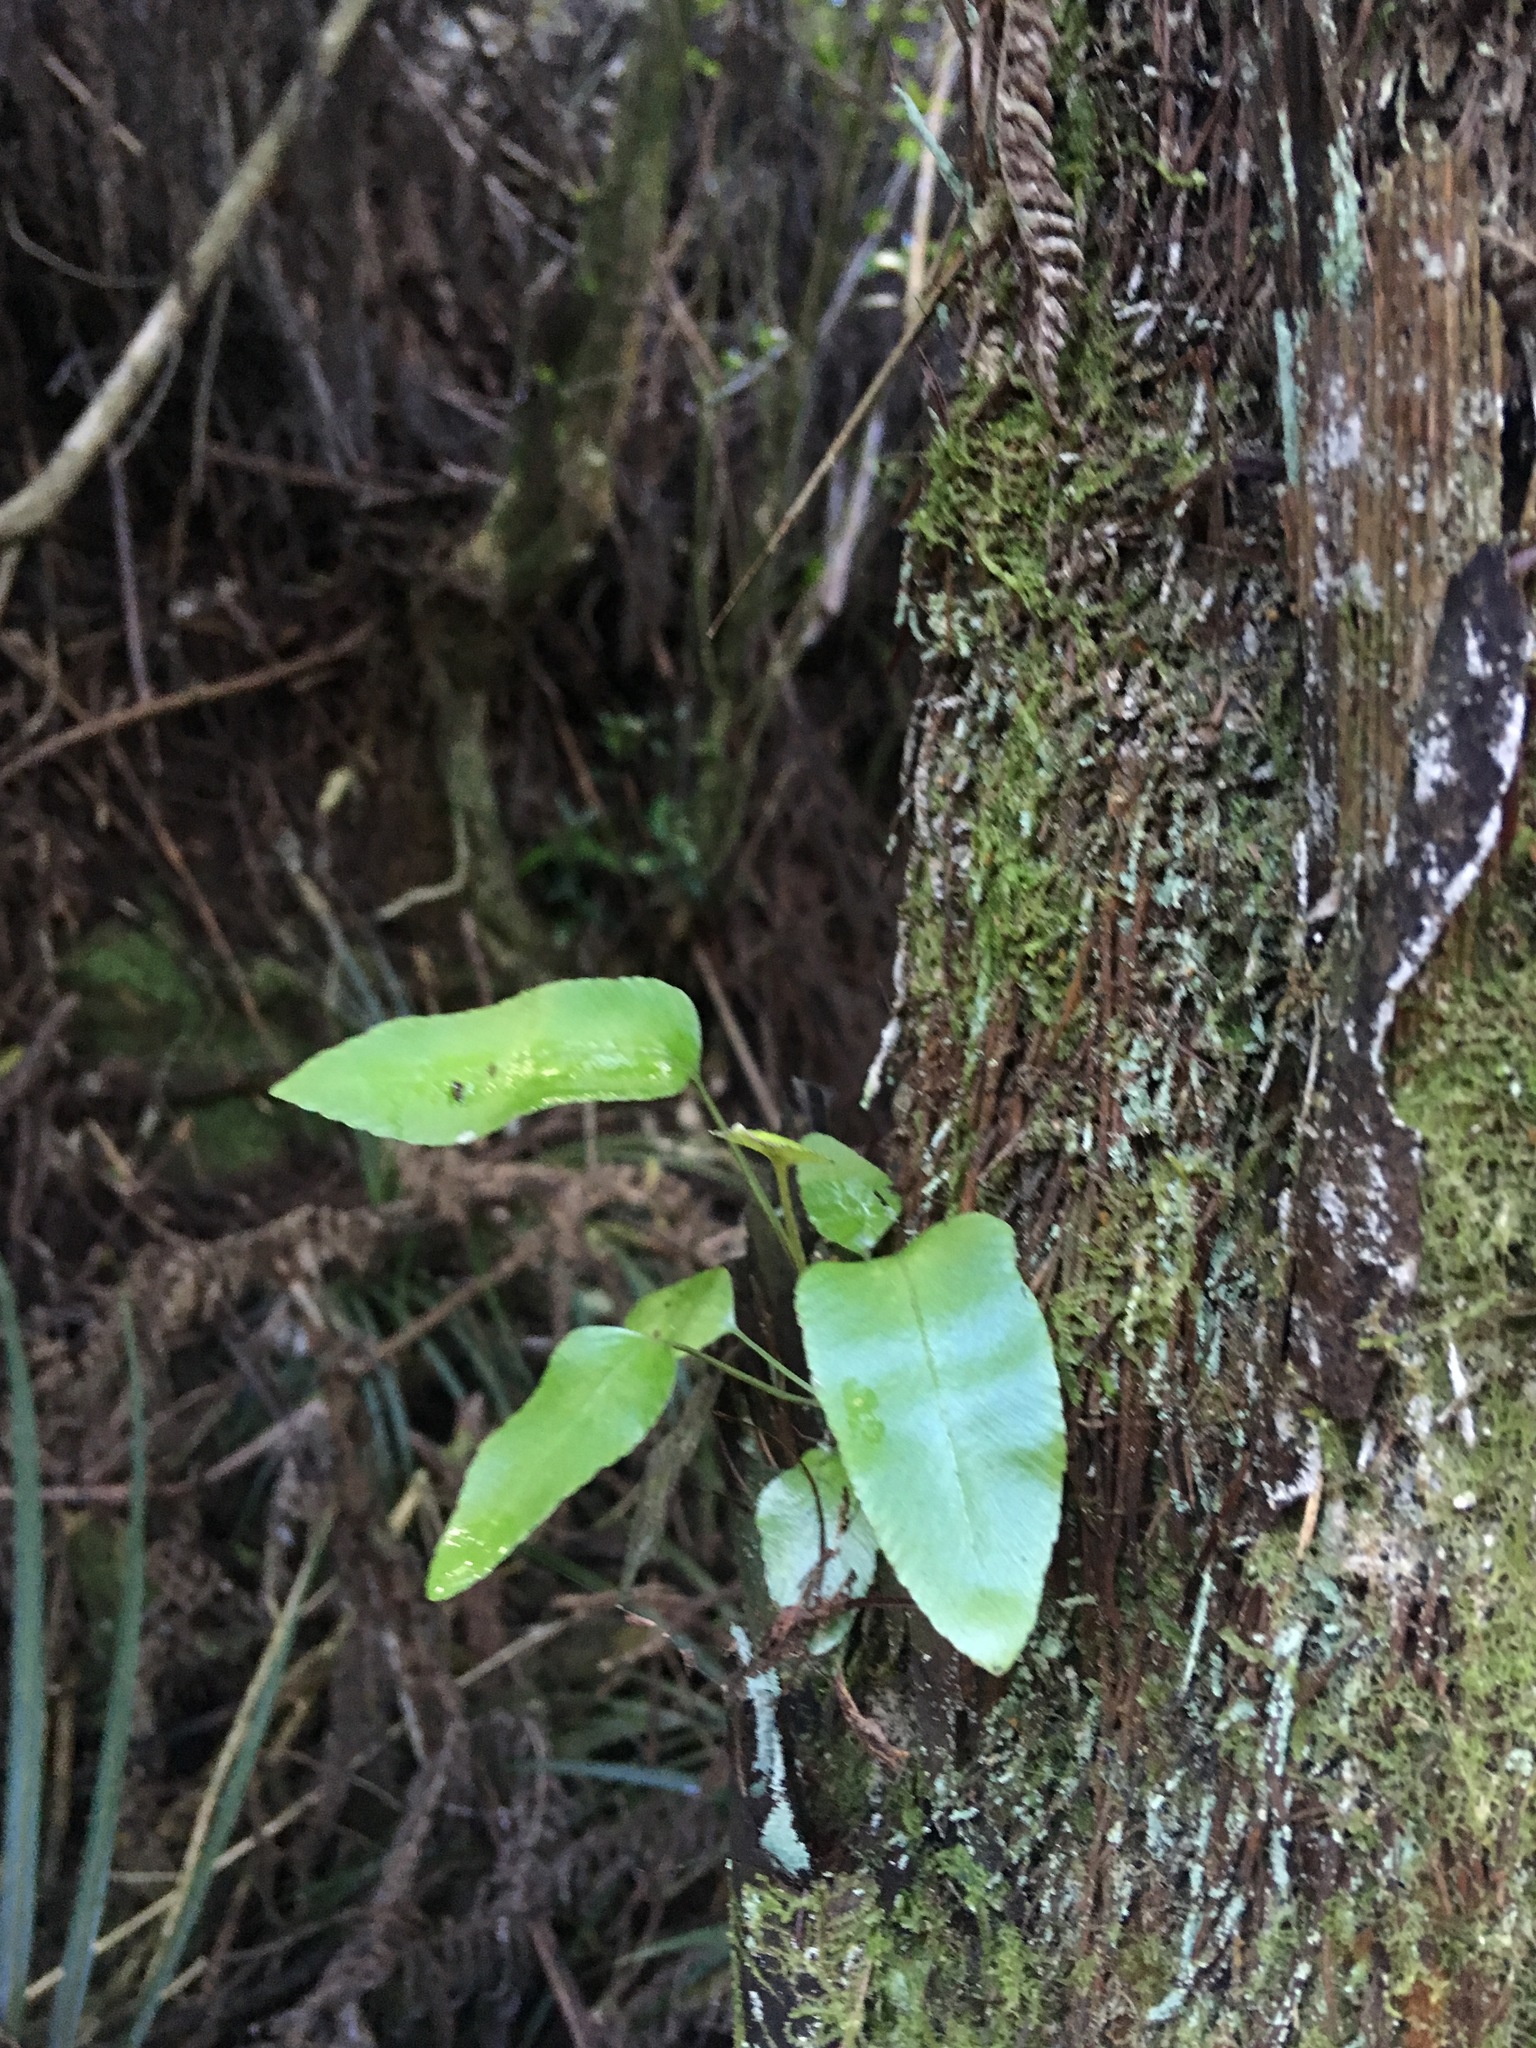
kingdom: Plantae
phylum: Tracheophyta
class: Polypodiopsida
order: Polypodiales
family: Aspleniaceae
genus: Asplenium
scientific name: Asplenium oblongifolium
